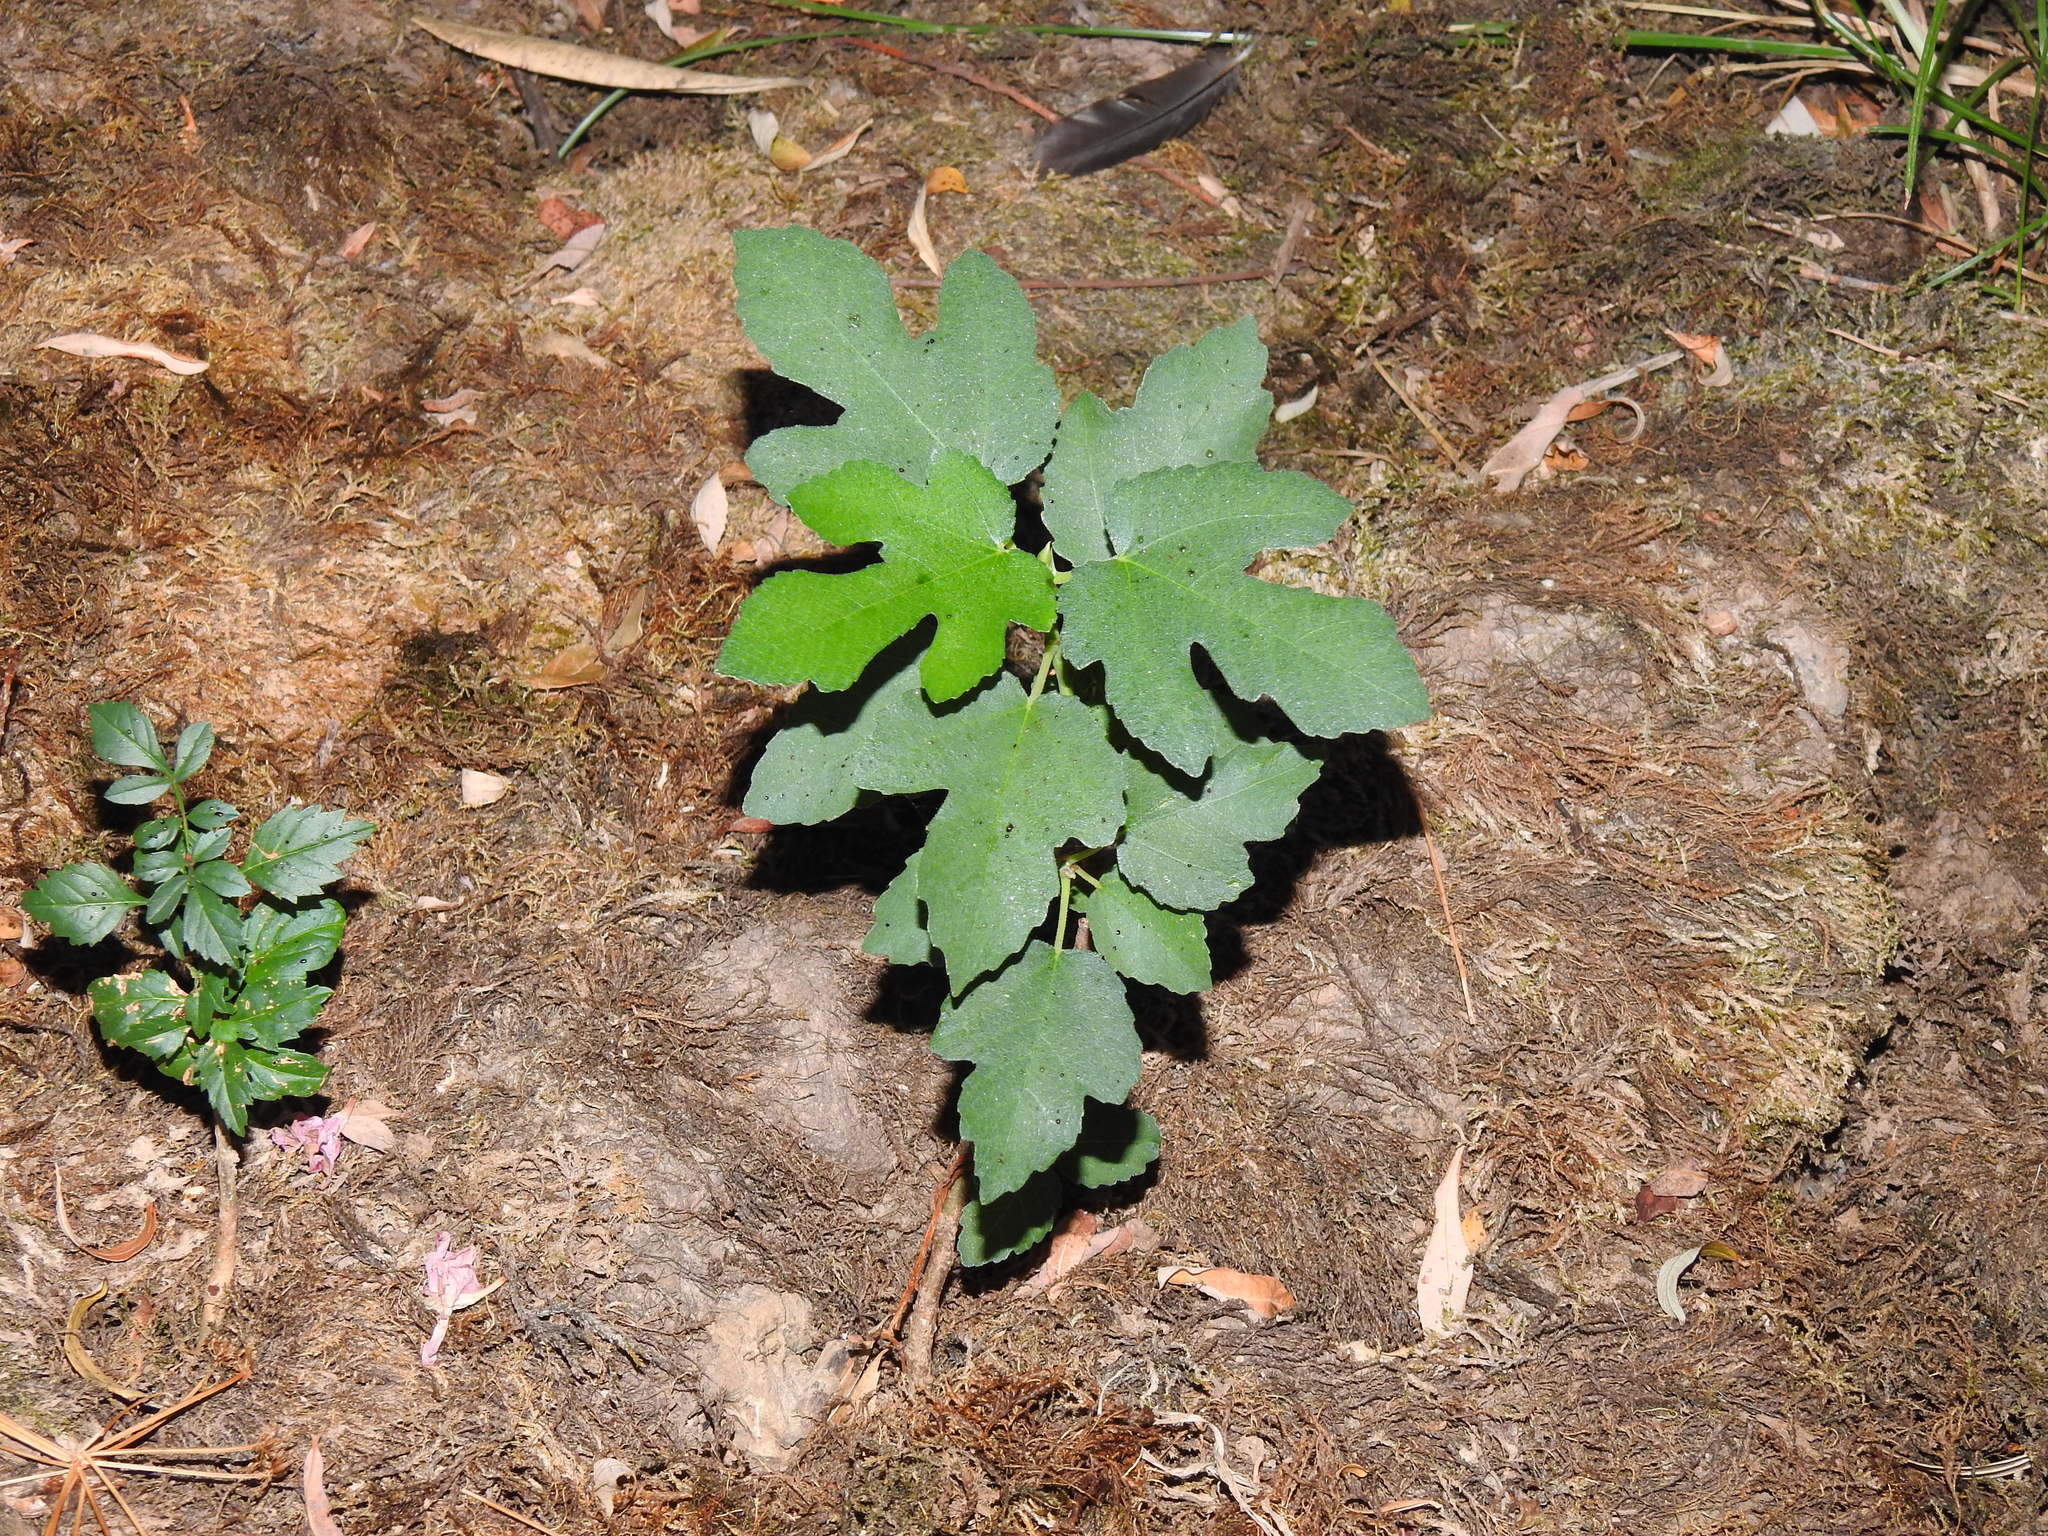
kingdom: Plantae
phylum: Tracheophyta
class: Magnoliopsida
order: Rosales
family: Moraceae
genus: Ficus
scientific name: Ficus carica
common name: Fig
